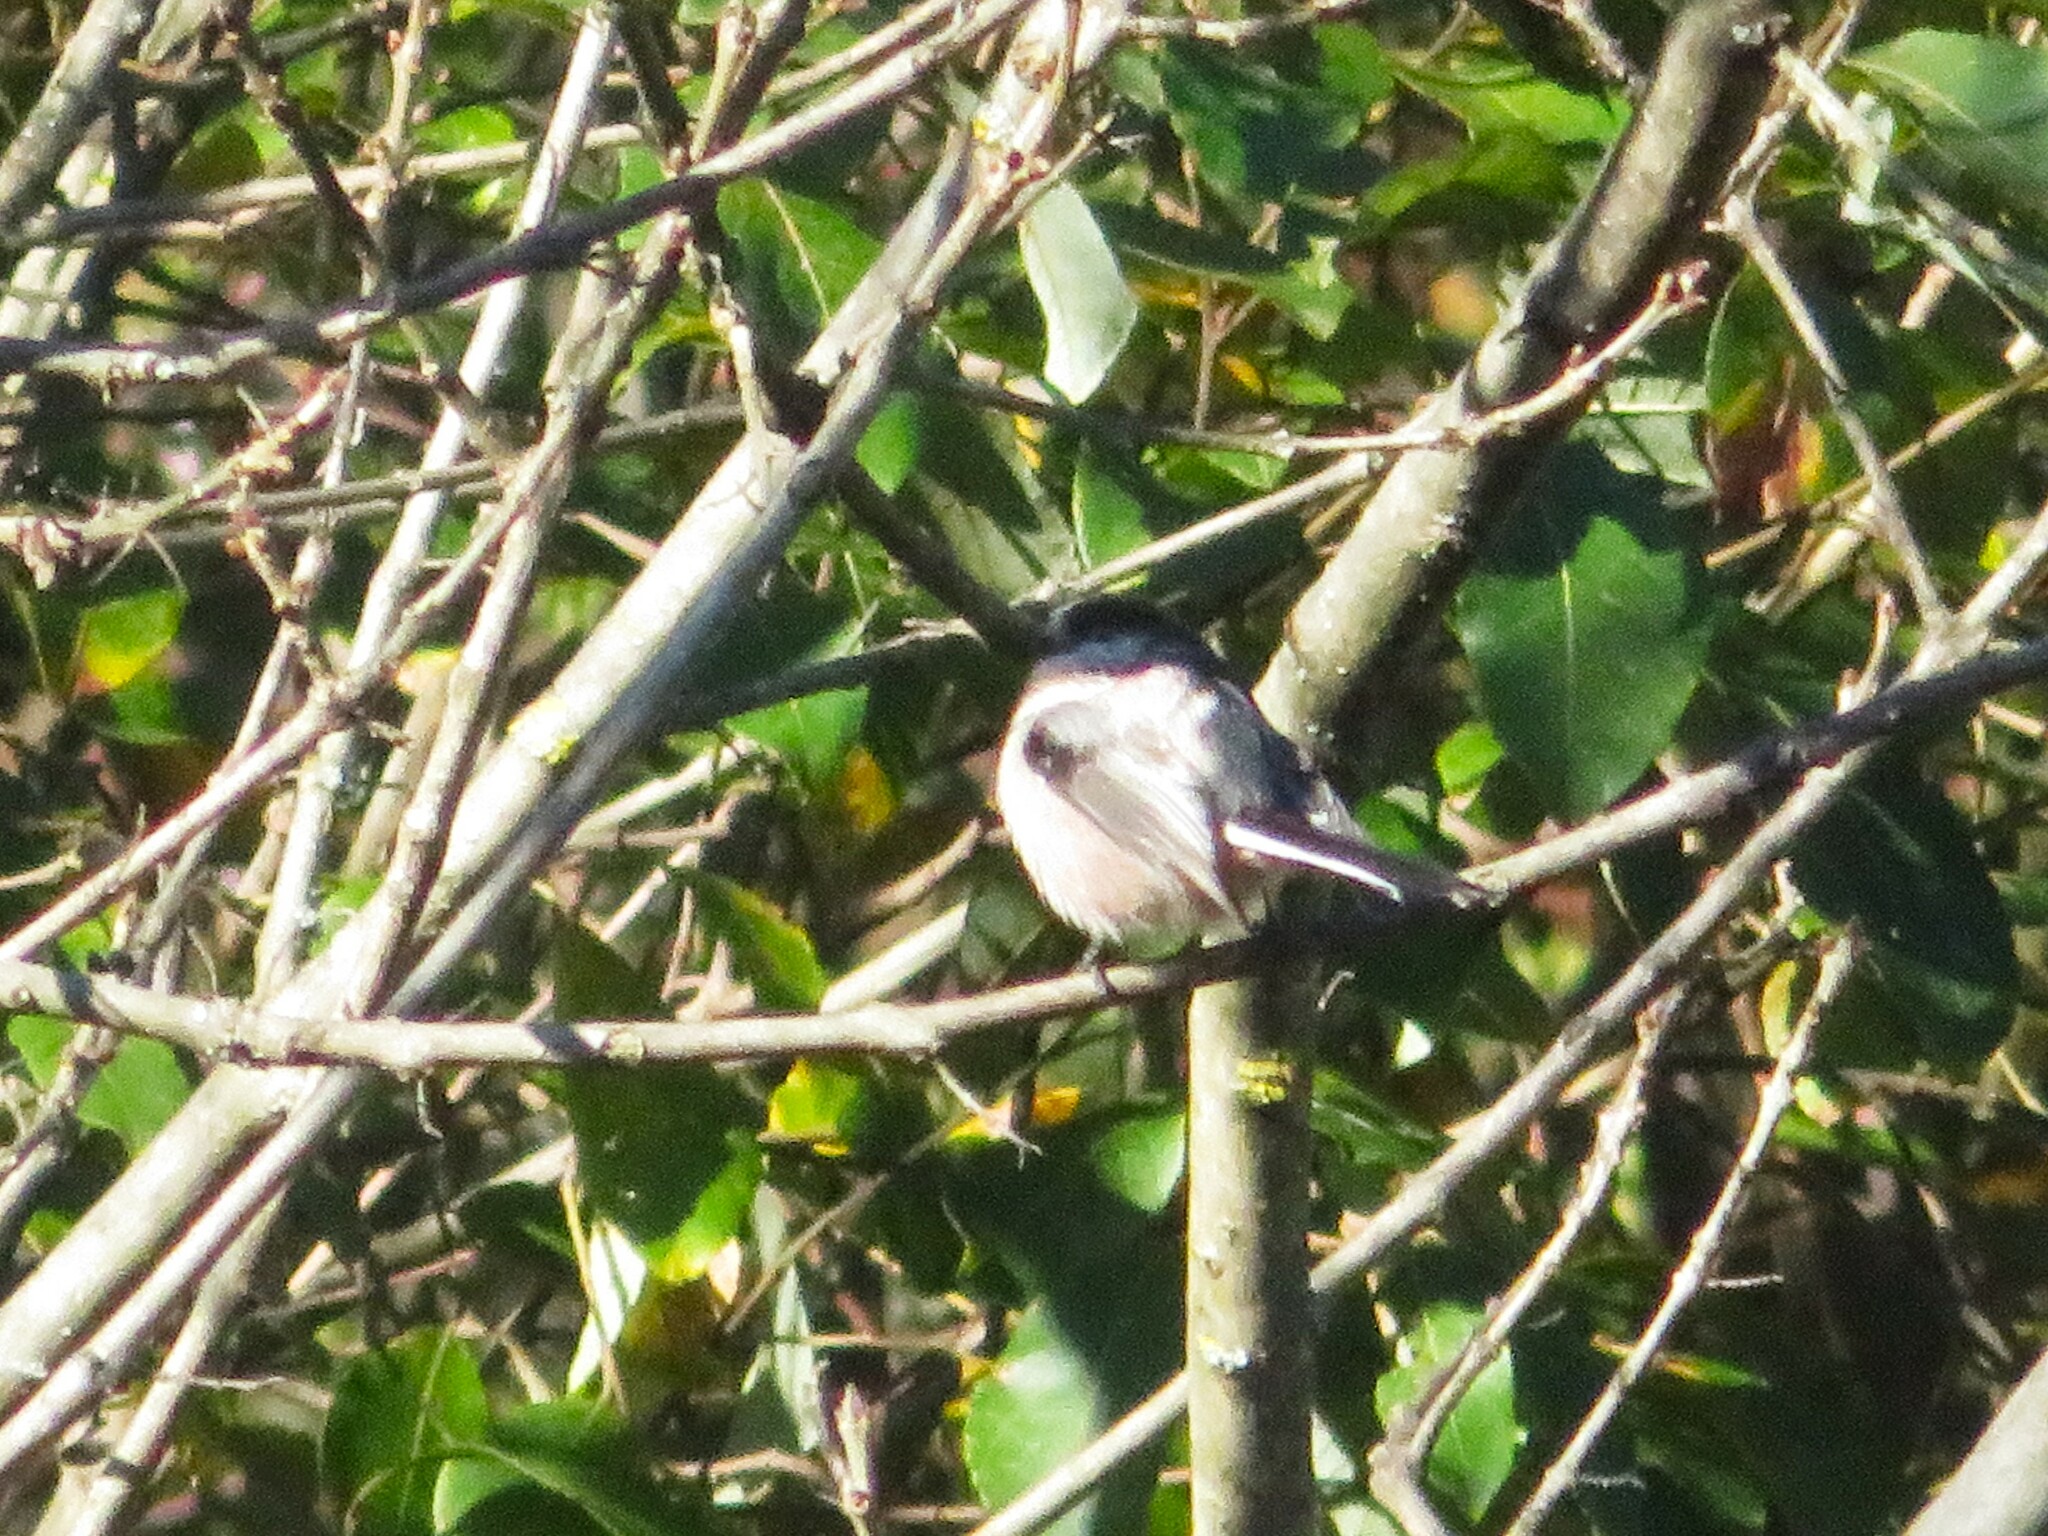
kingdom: Animalia
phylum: Chordata
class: Aves
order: Passeriformes
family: Aegithalidae
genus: Aegithalos
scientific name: Aegithalos caudatus
